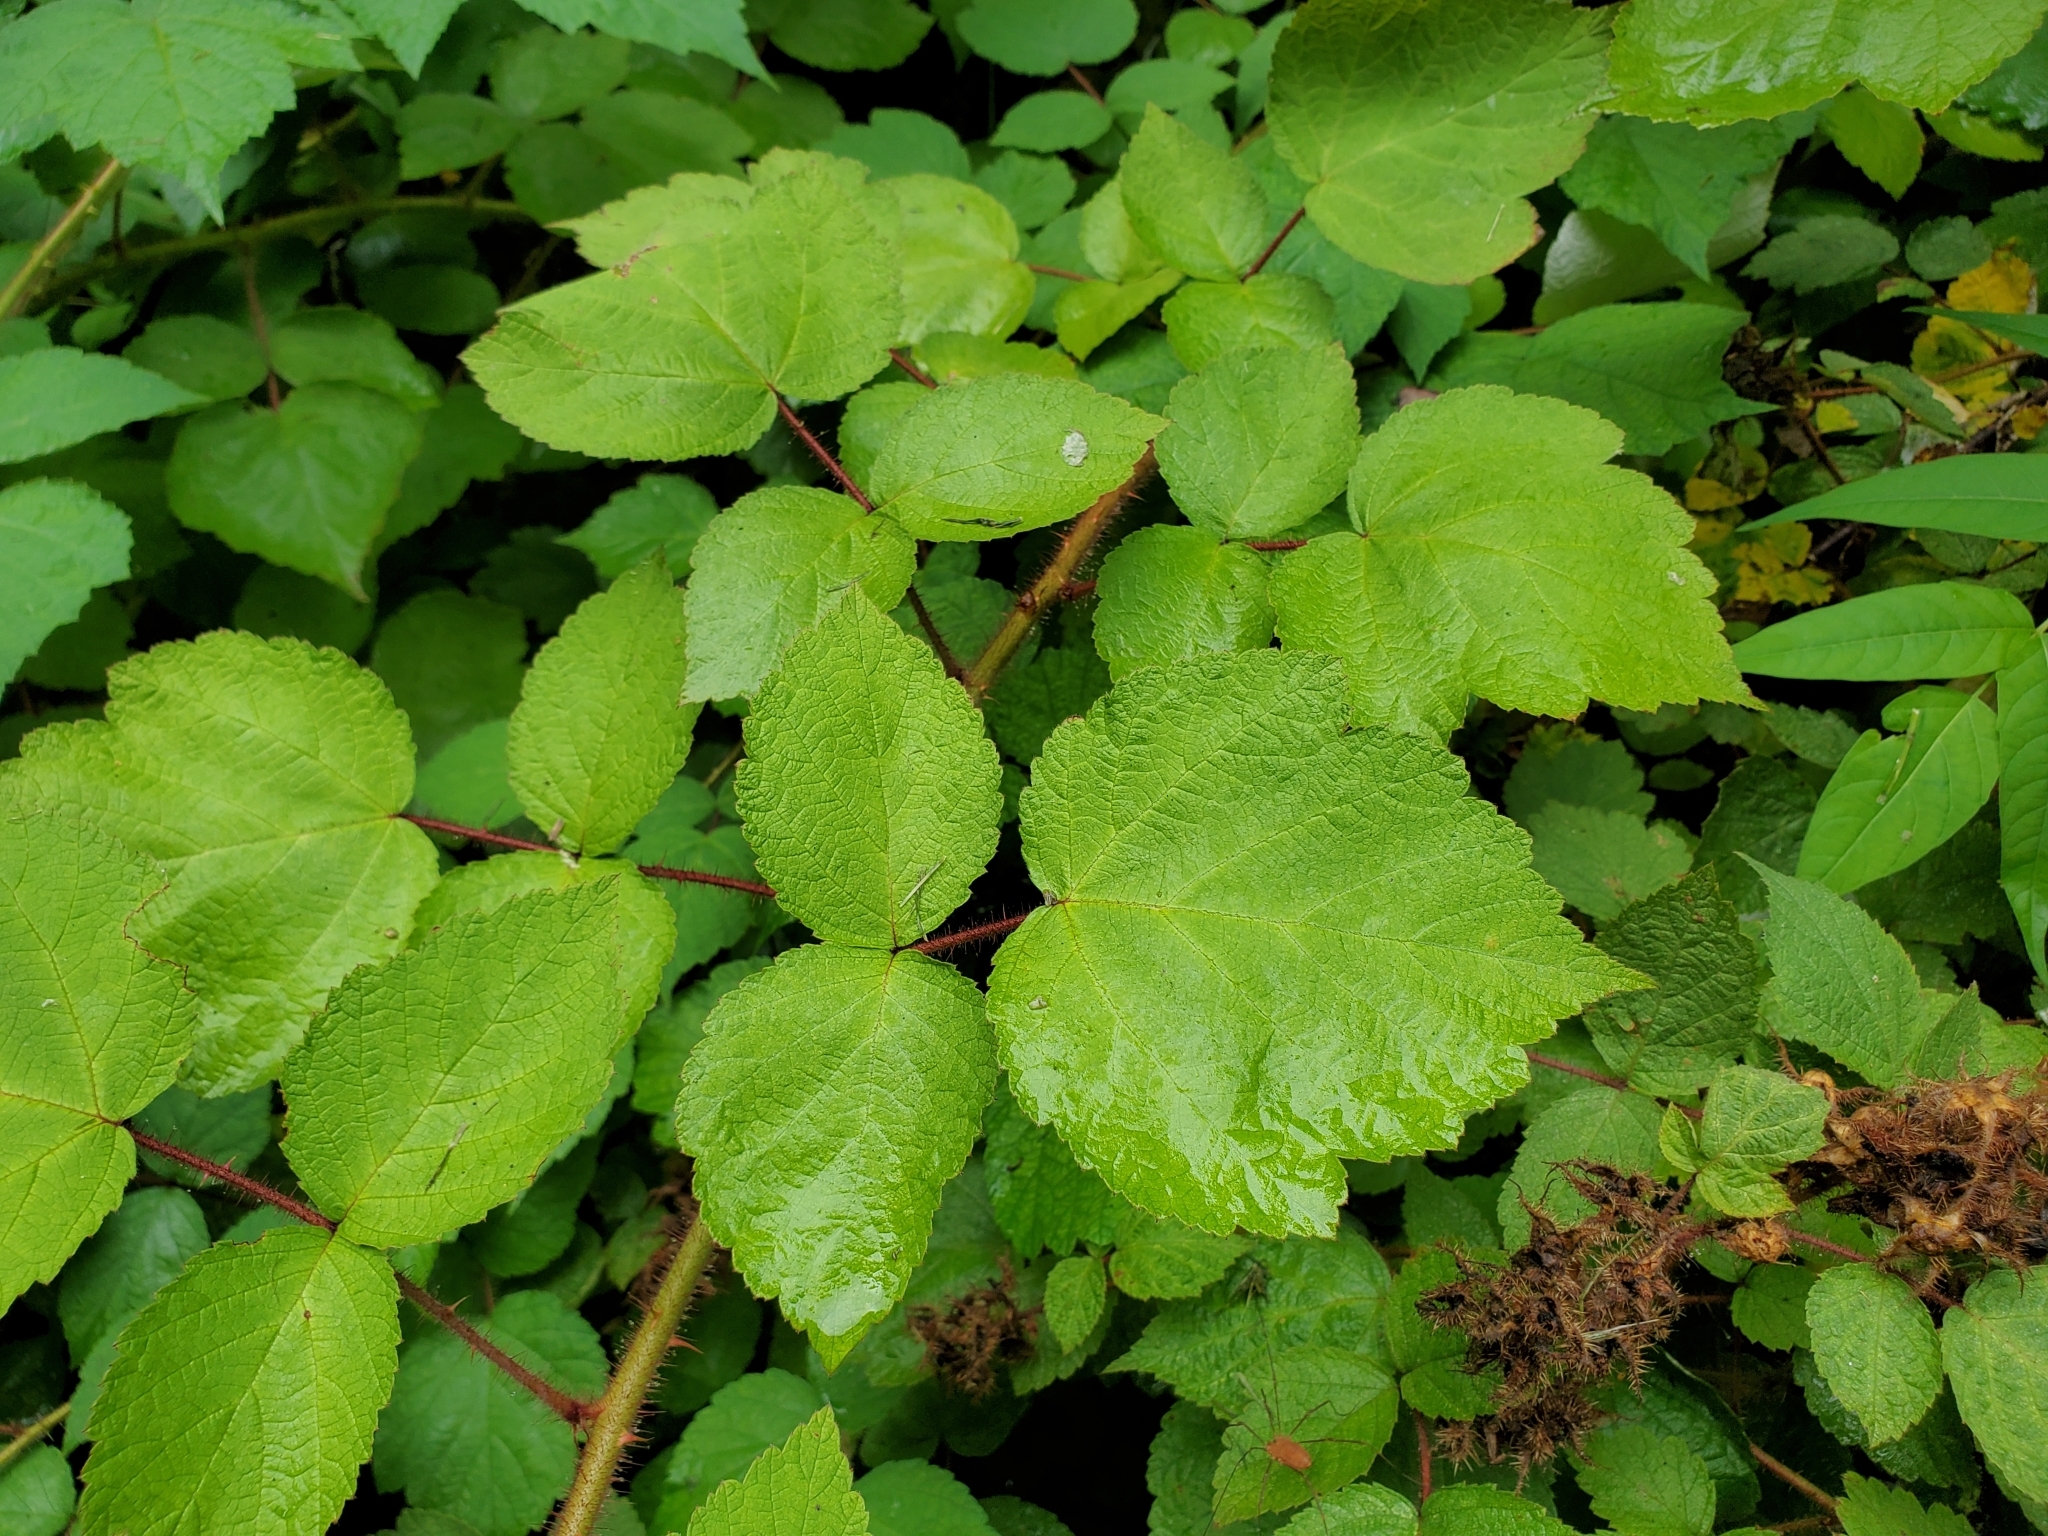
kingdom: Plantae
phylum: Tracheophyta
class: Magnoliopsida
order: Rosales
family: Rosaceae
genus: Rubus
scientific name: Rubus phoenicolasius
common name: Japanese wineberry
